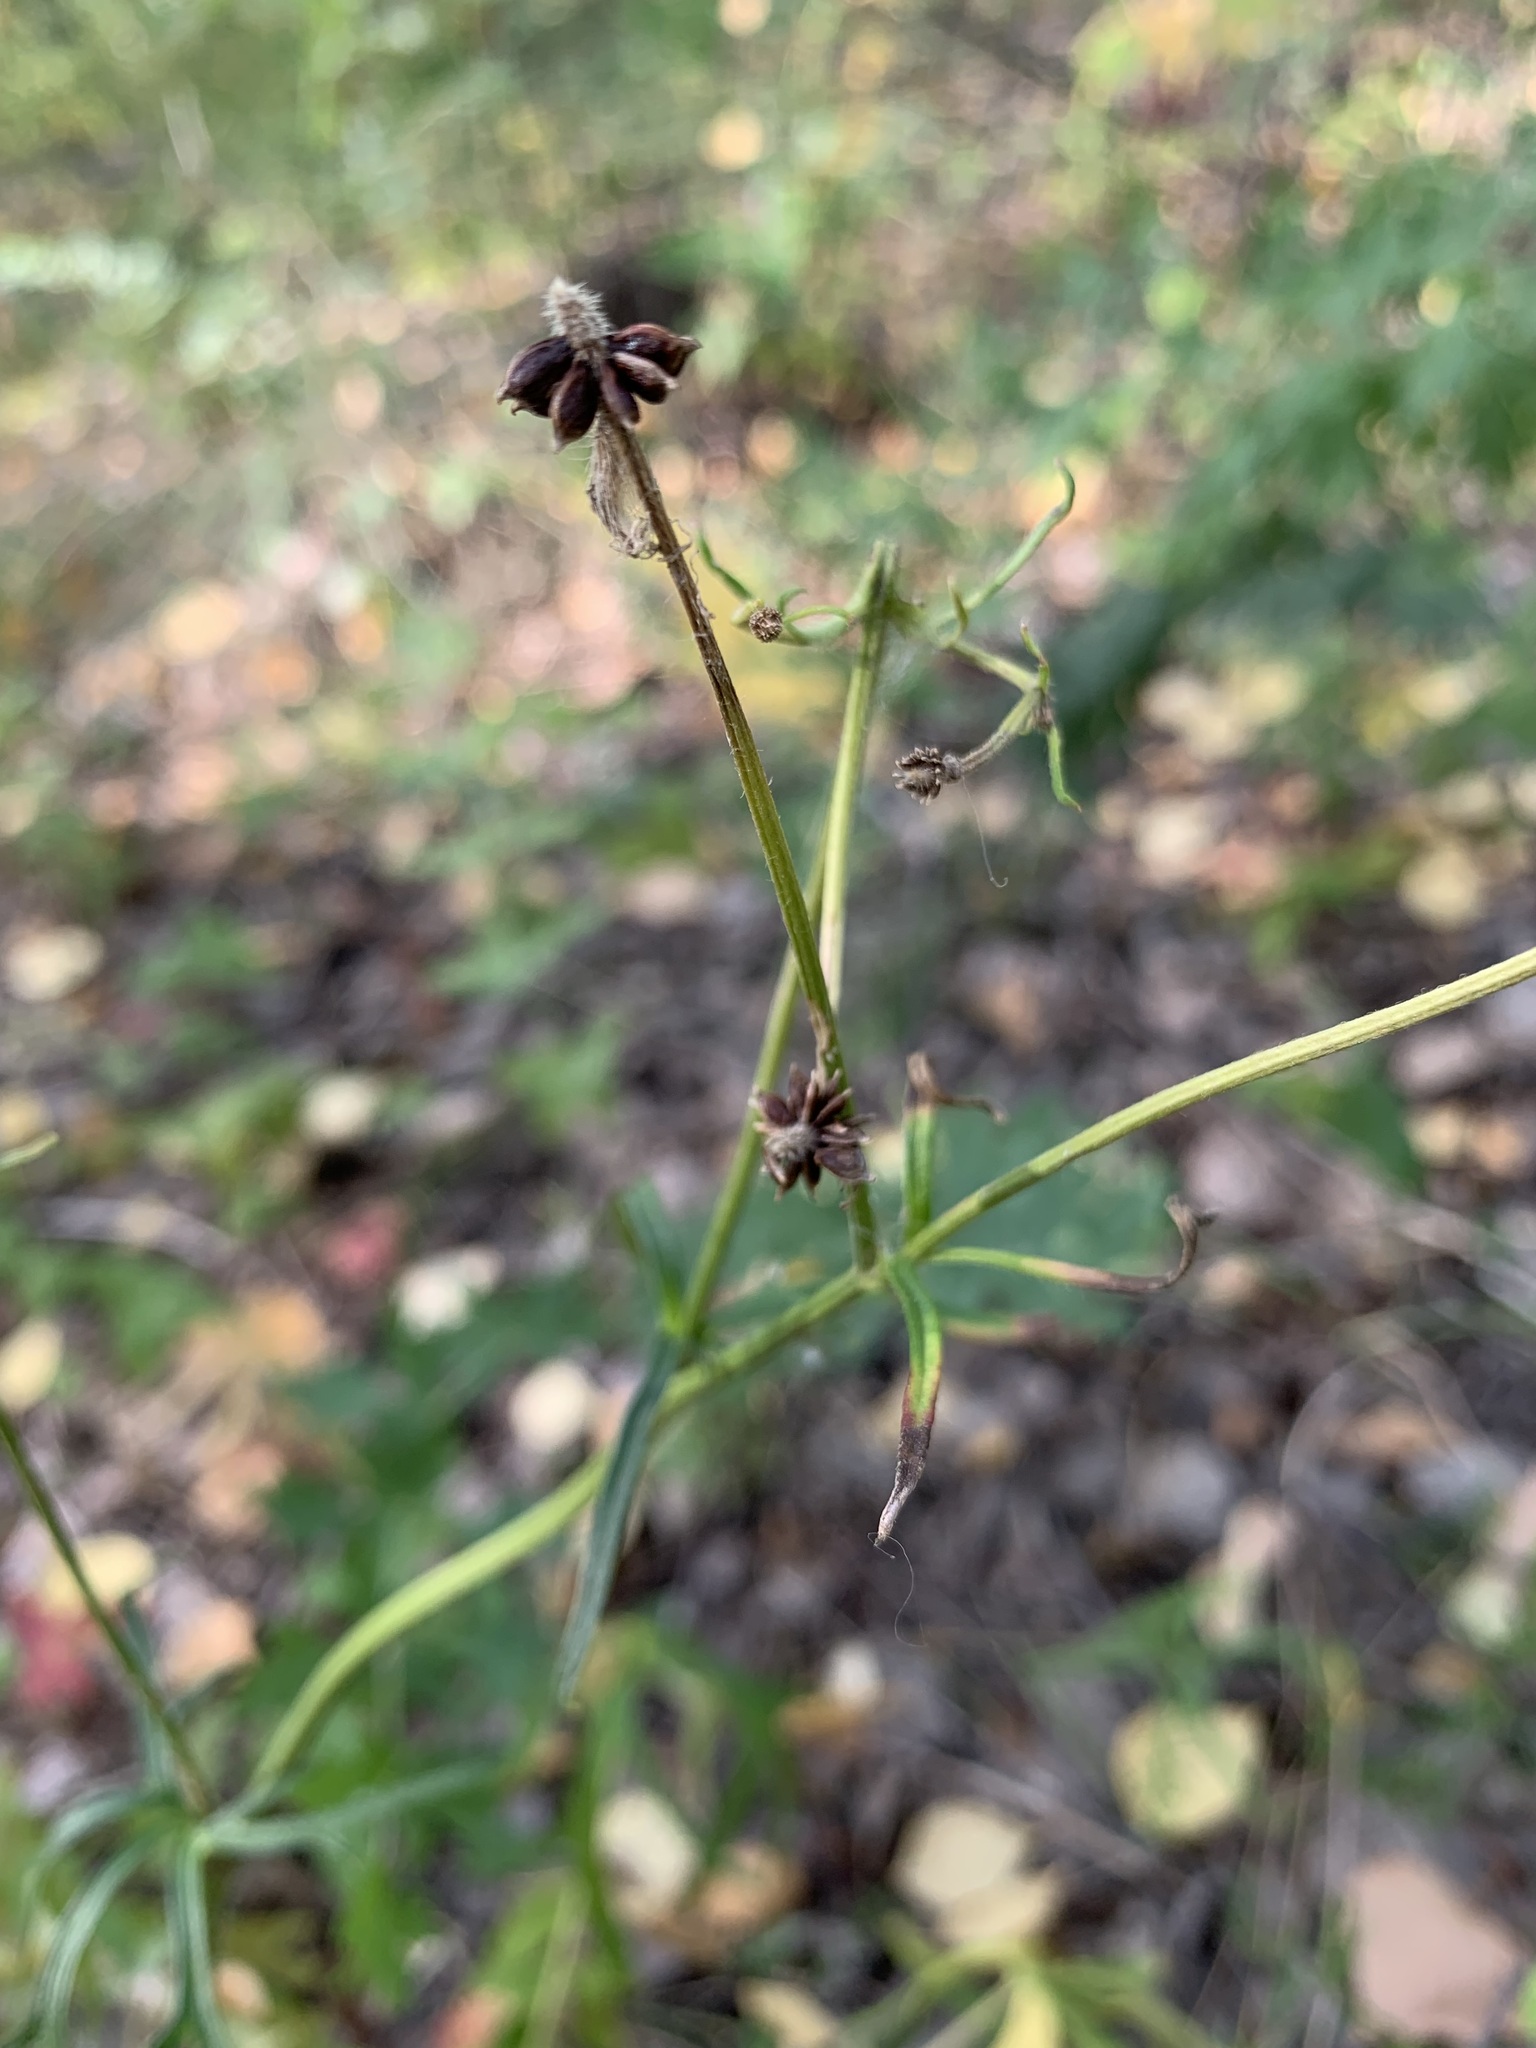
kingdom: Plantae
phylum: Tracheophyta
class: Magnoliopsida
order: Ranunculales
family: Ranunculaceae
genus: Ranunculus
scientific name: Ranunculus polyanthemos
